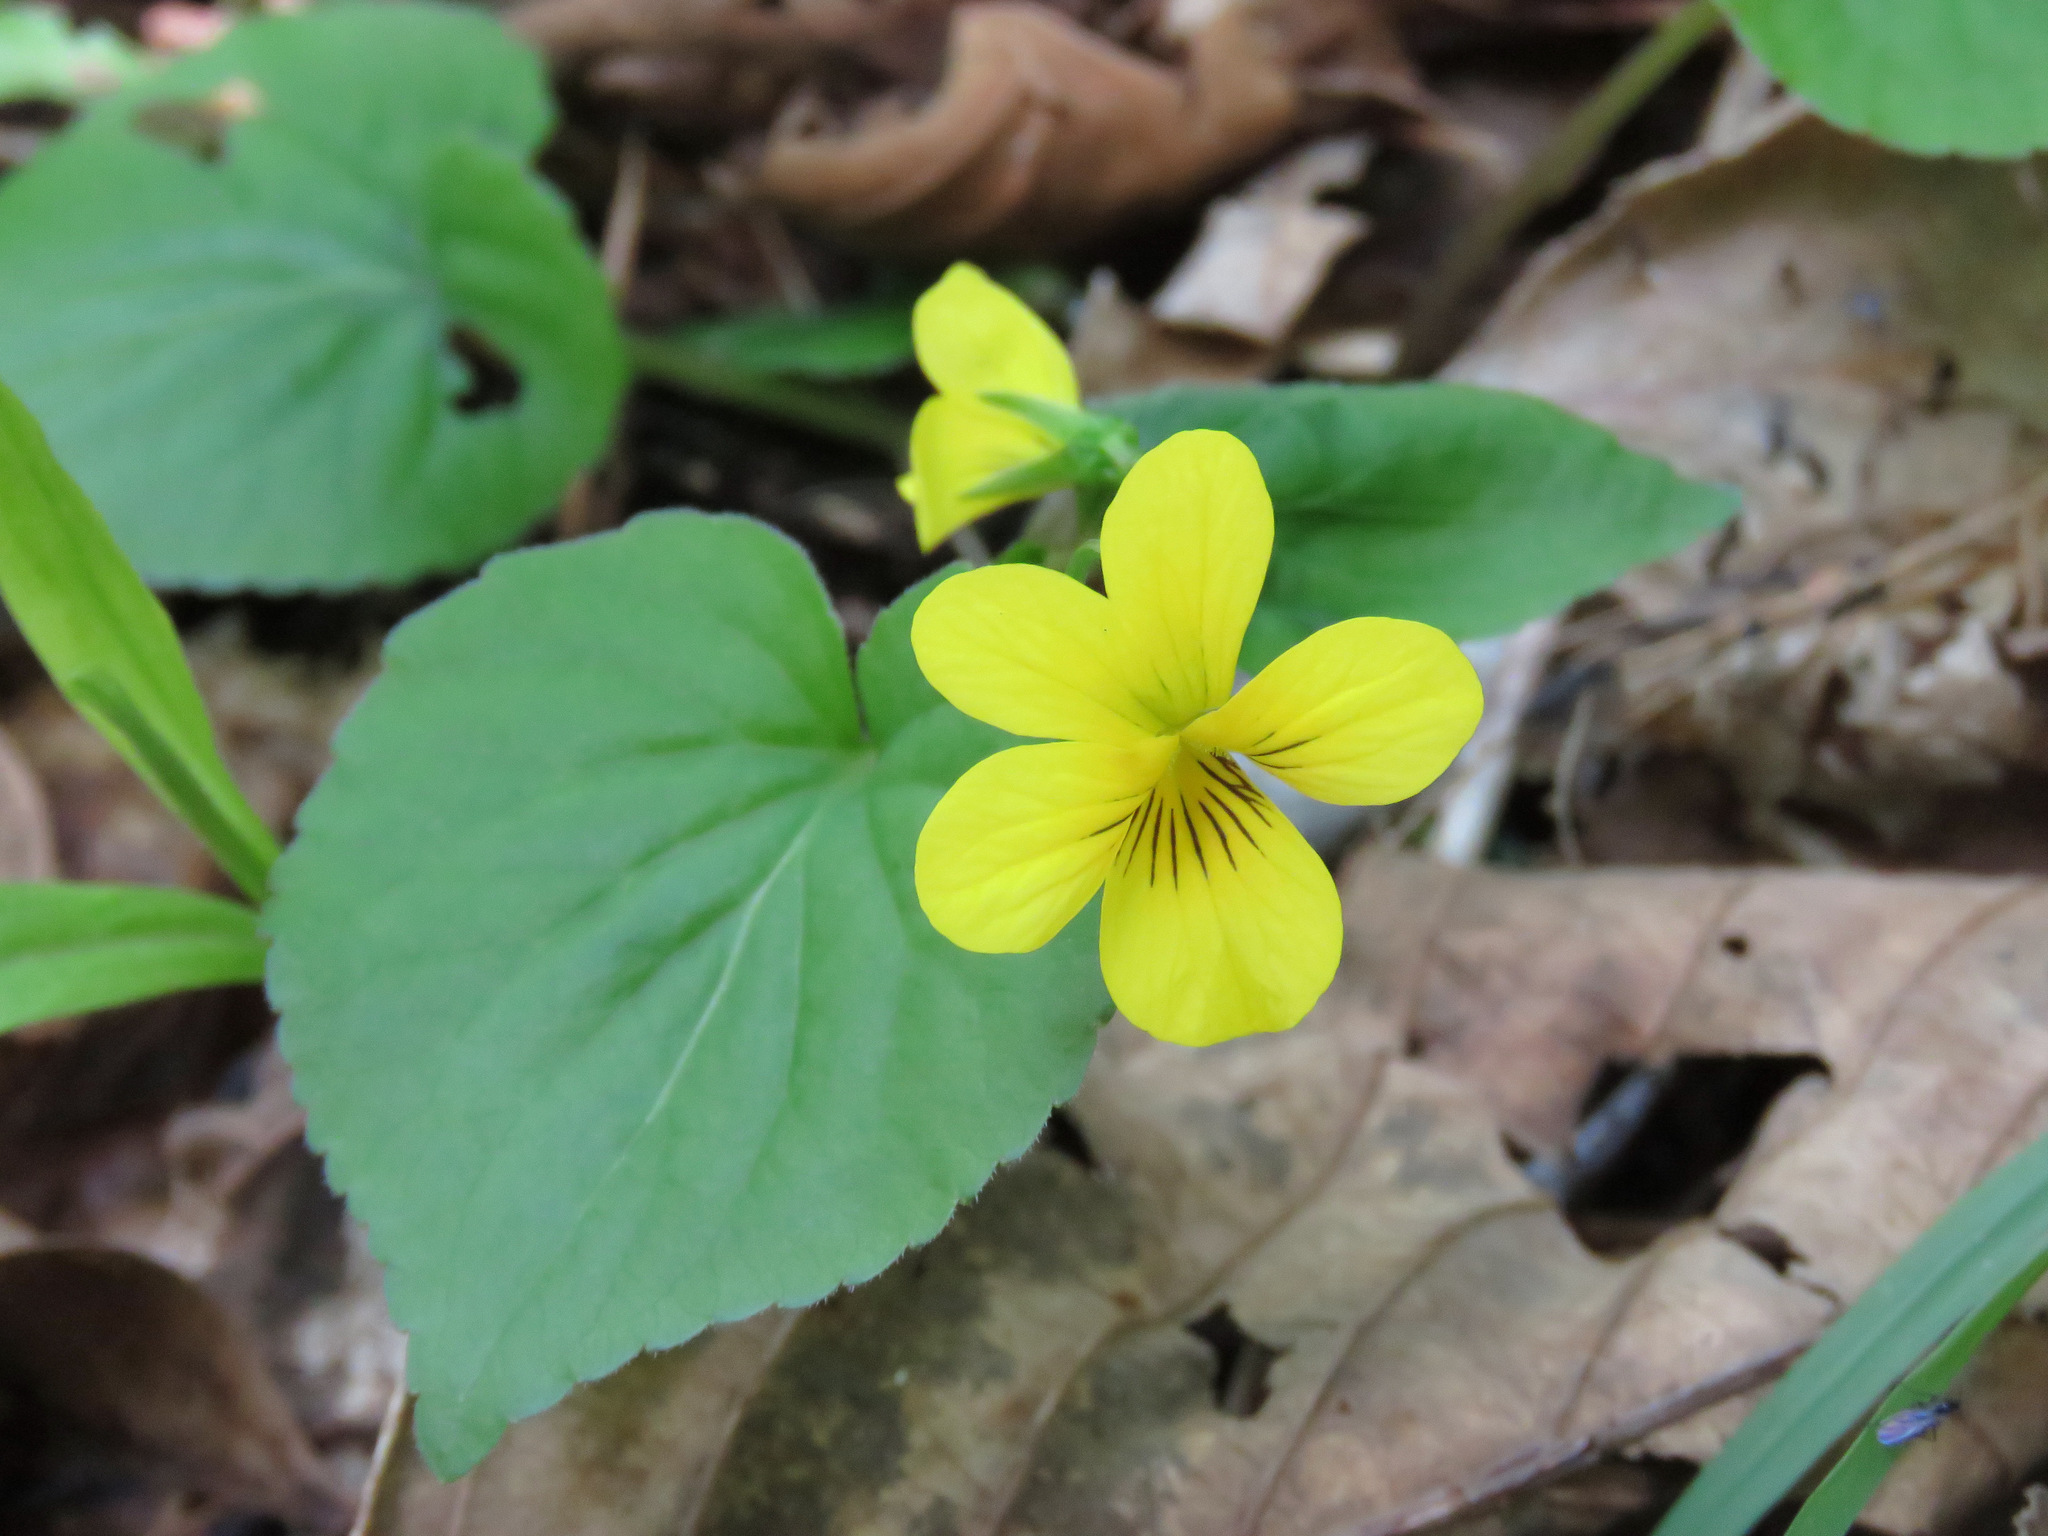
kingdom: Plantae
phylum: Tracheophyta
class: Magnoliopsida
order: Malpighiales
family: Violaceae
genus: Viola
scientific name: Viola glabella
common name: Stream violet
